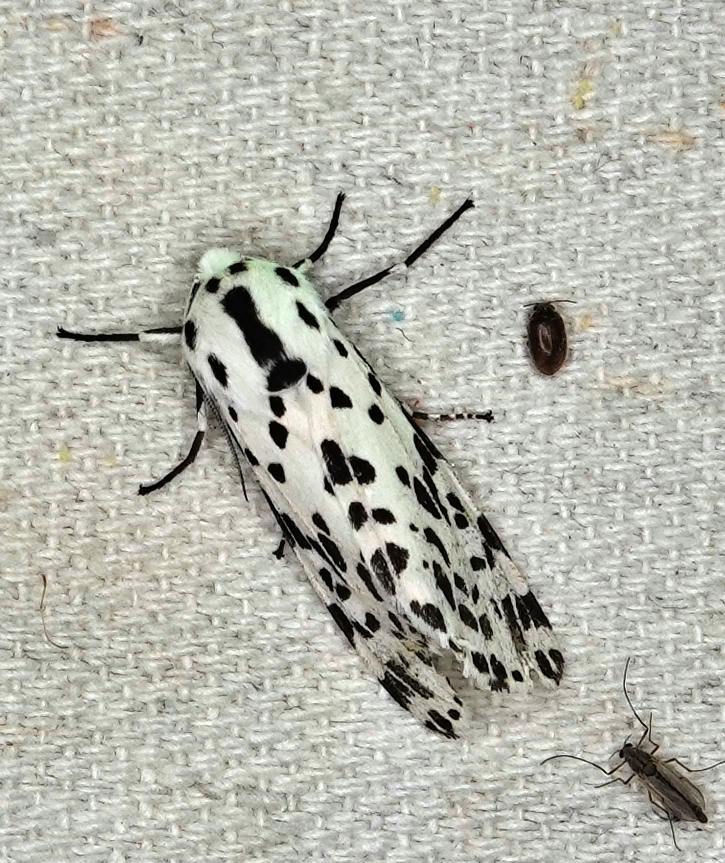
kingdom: Animalia
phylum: Arthropoda
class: Insecta
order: Lepidoptera
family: Erebidae
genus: Hypercompe
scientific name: Hypercompe permaculata
